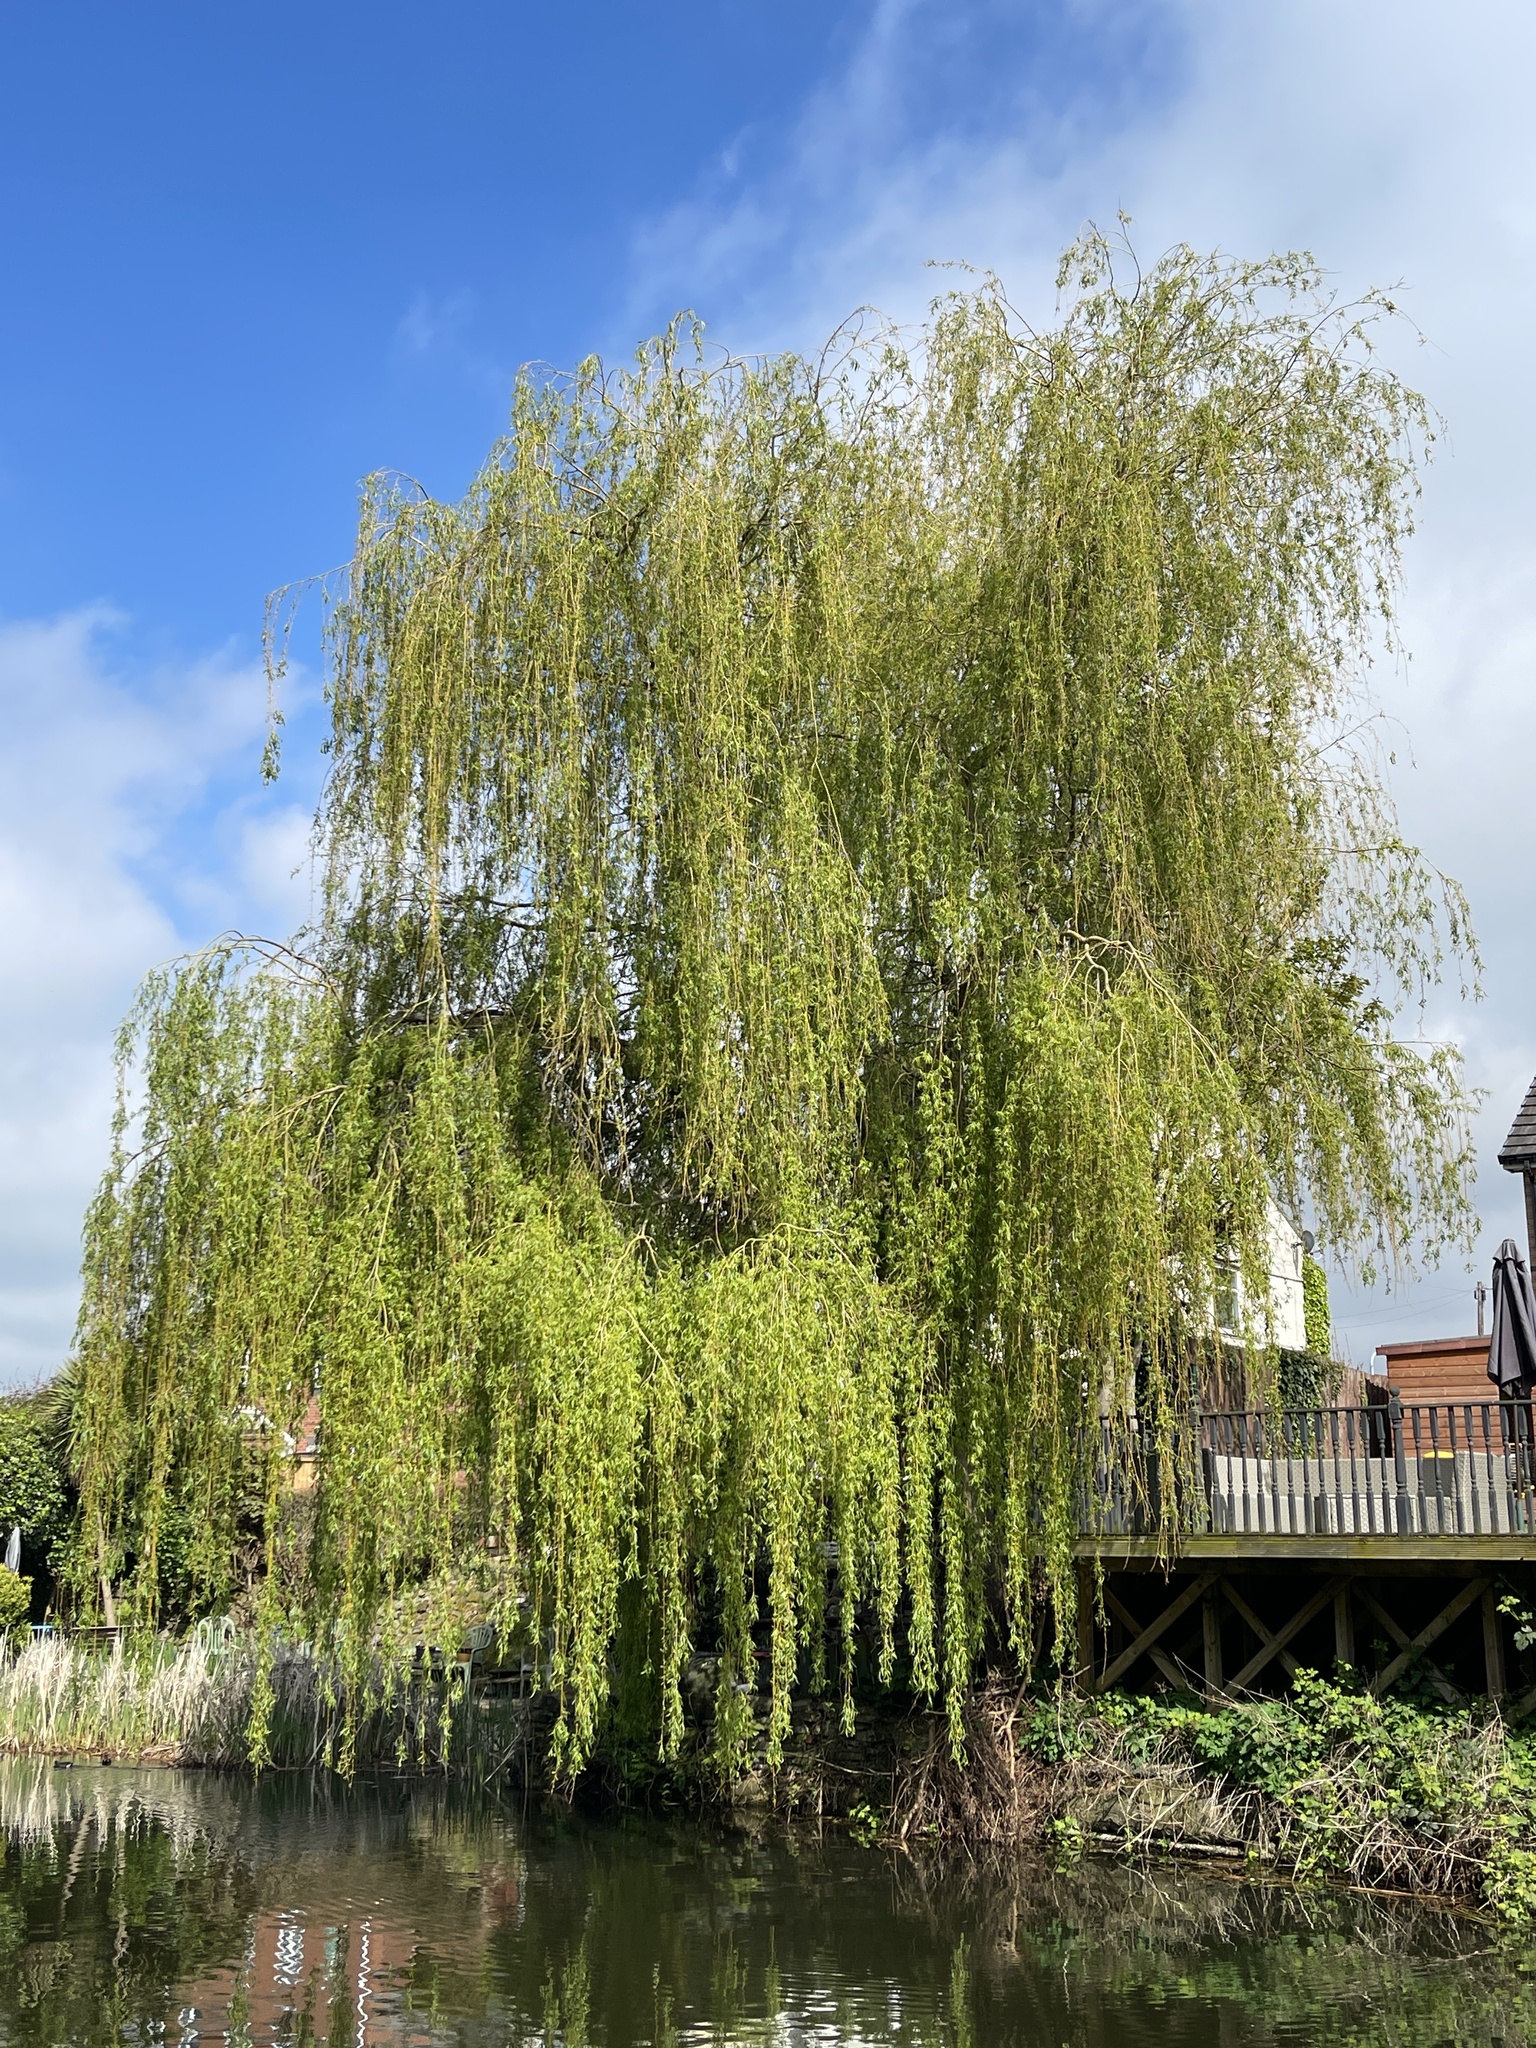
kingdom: Plantae
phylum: Tracheophyta
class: Magnoliopsida
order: Malpighiales
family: Salicaceae
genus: Salix
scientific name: Salix babylonica
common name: Weeping willow
